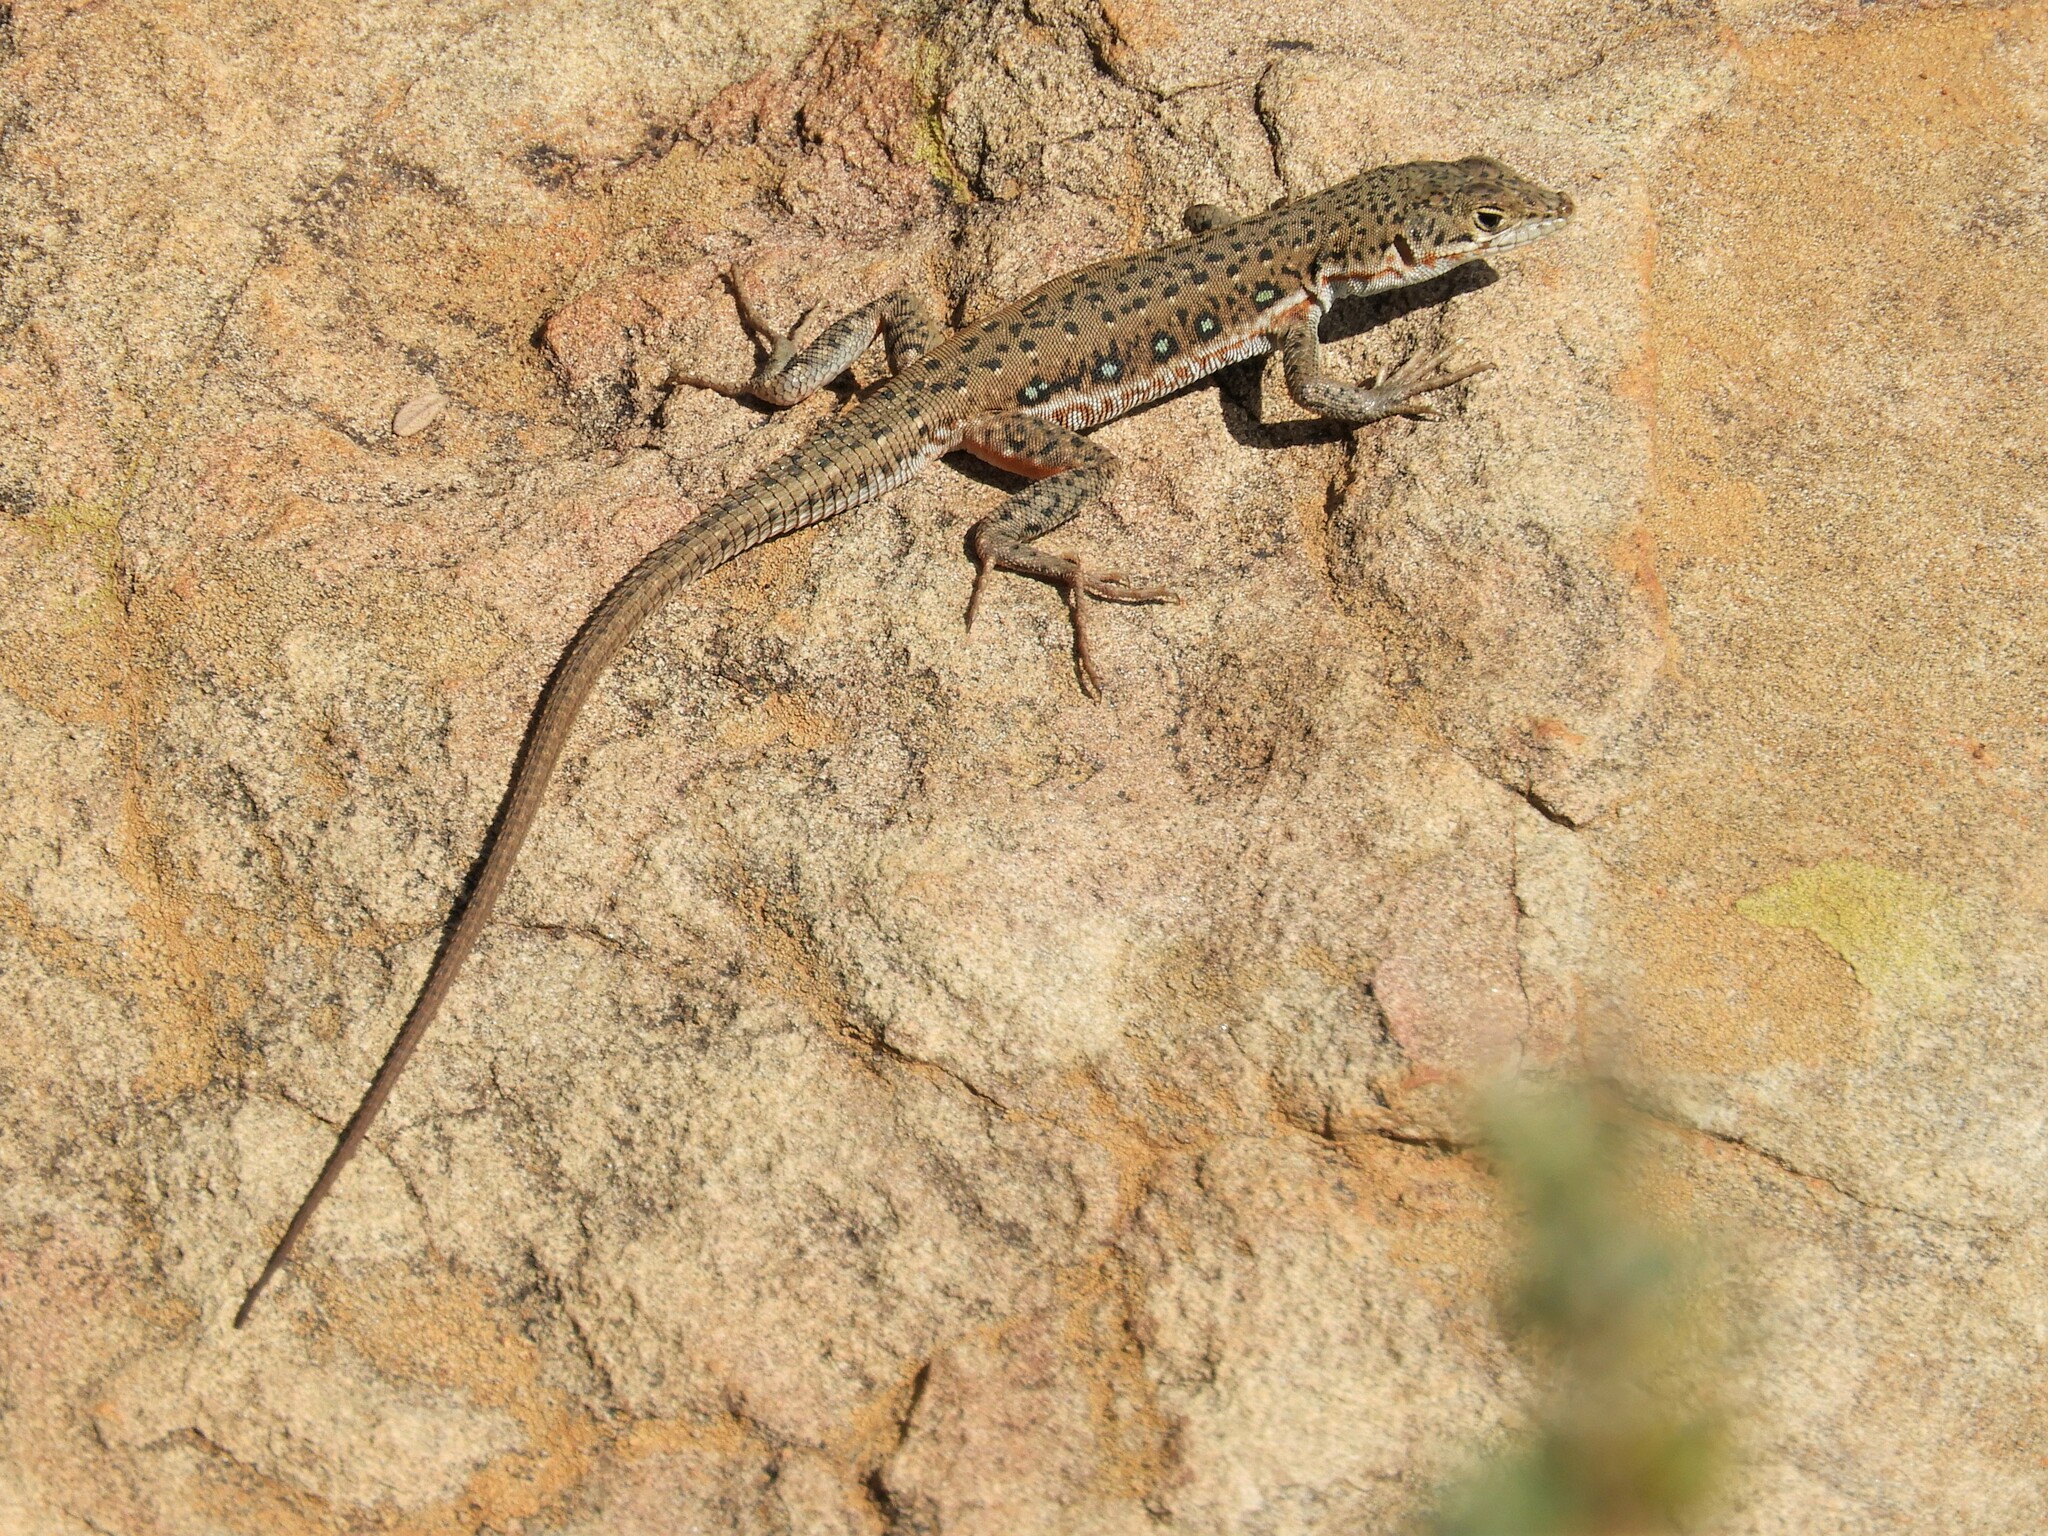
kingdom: Animalia
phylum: Chordata
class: Squamata
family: Lacertidae
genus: Pedioplanis
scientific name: Pedioplanis lineoocellata
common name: Spotted sand lizard
